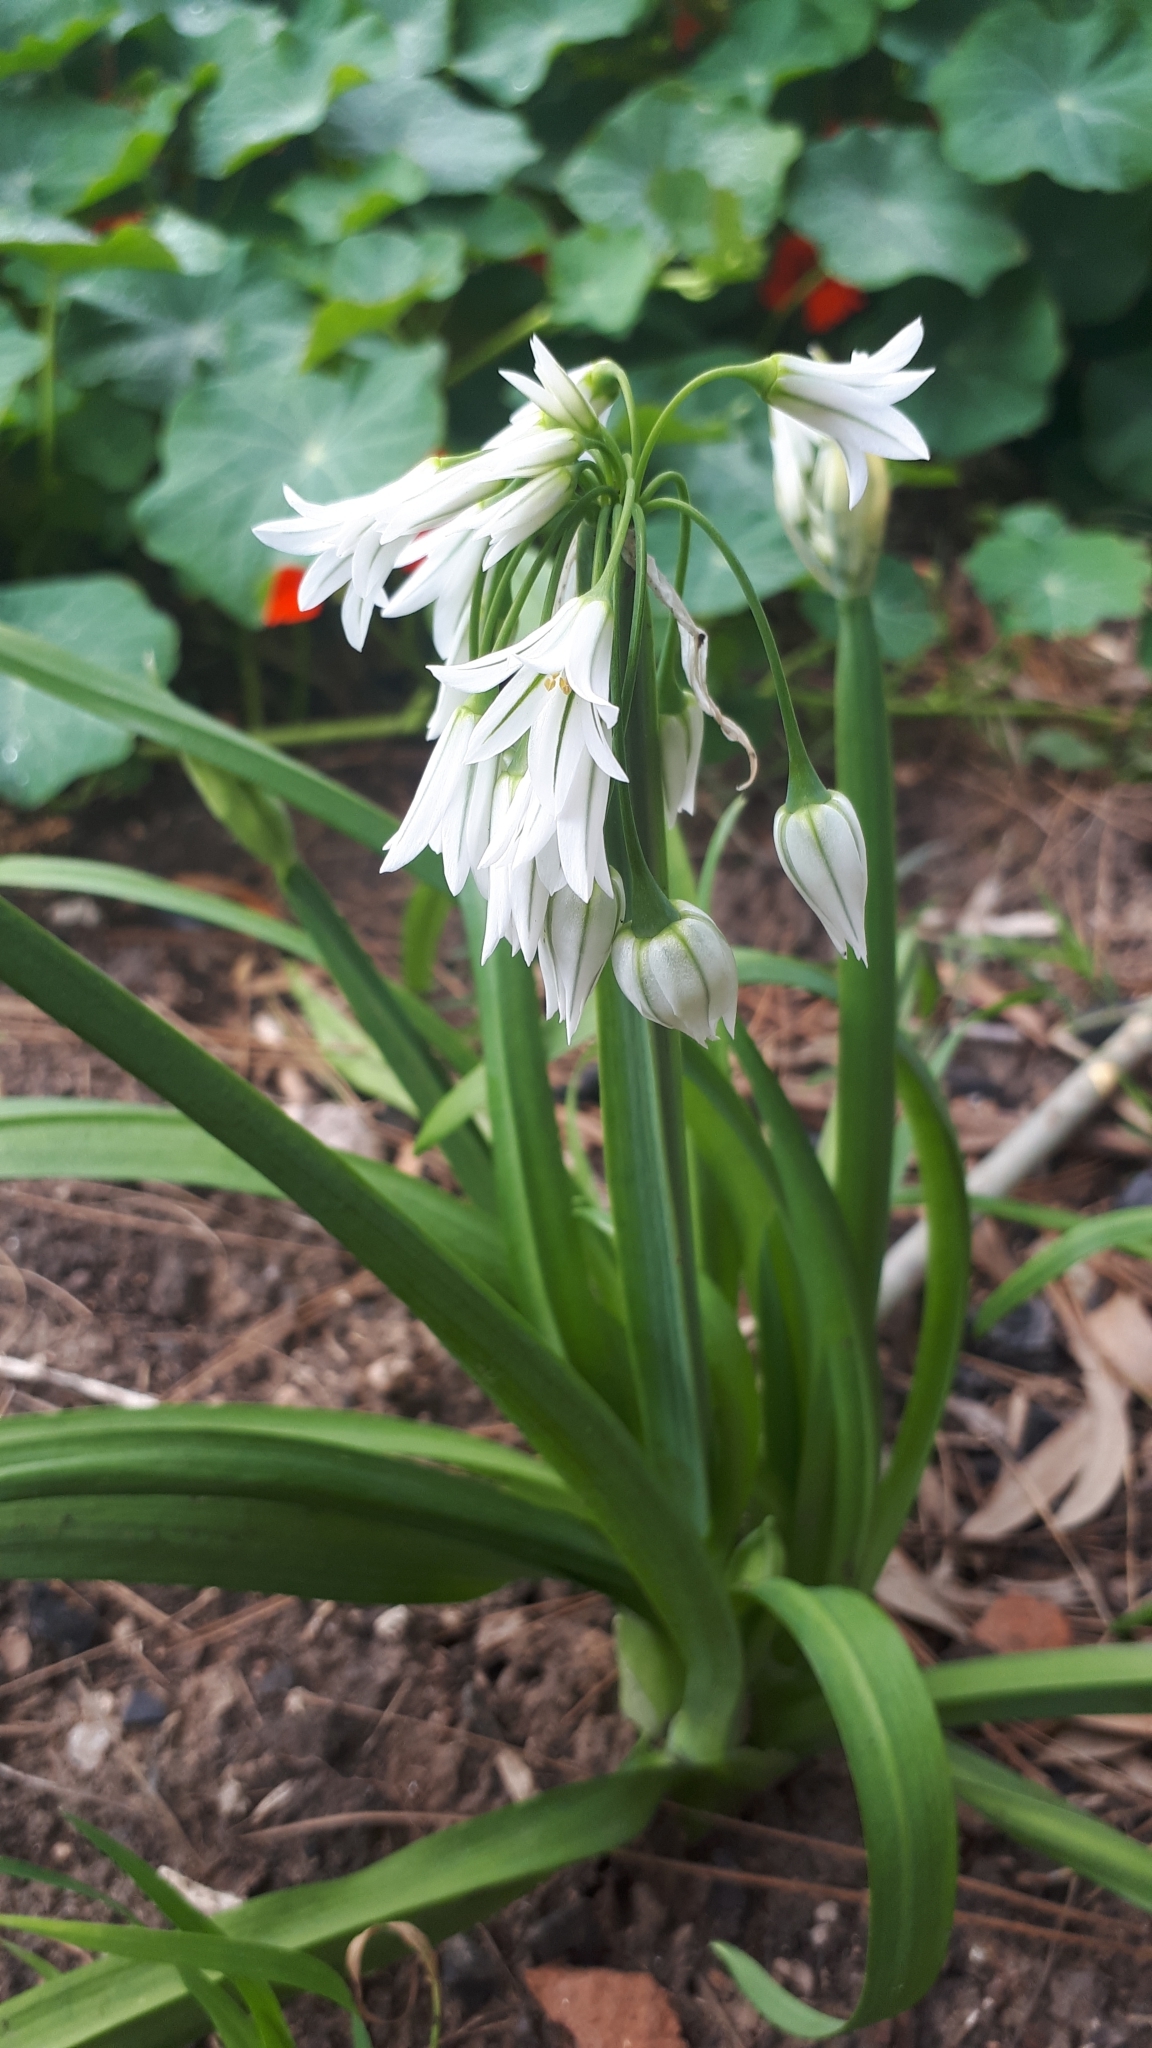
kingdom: Plantae
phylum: Tracheophyta
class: Liliopsida
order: Asparagales
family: Amaryllidaceae
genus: Allium
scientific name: Allium triquetrum
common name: Three-cornered garlic
